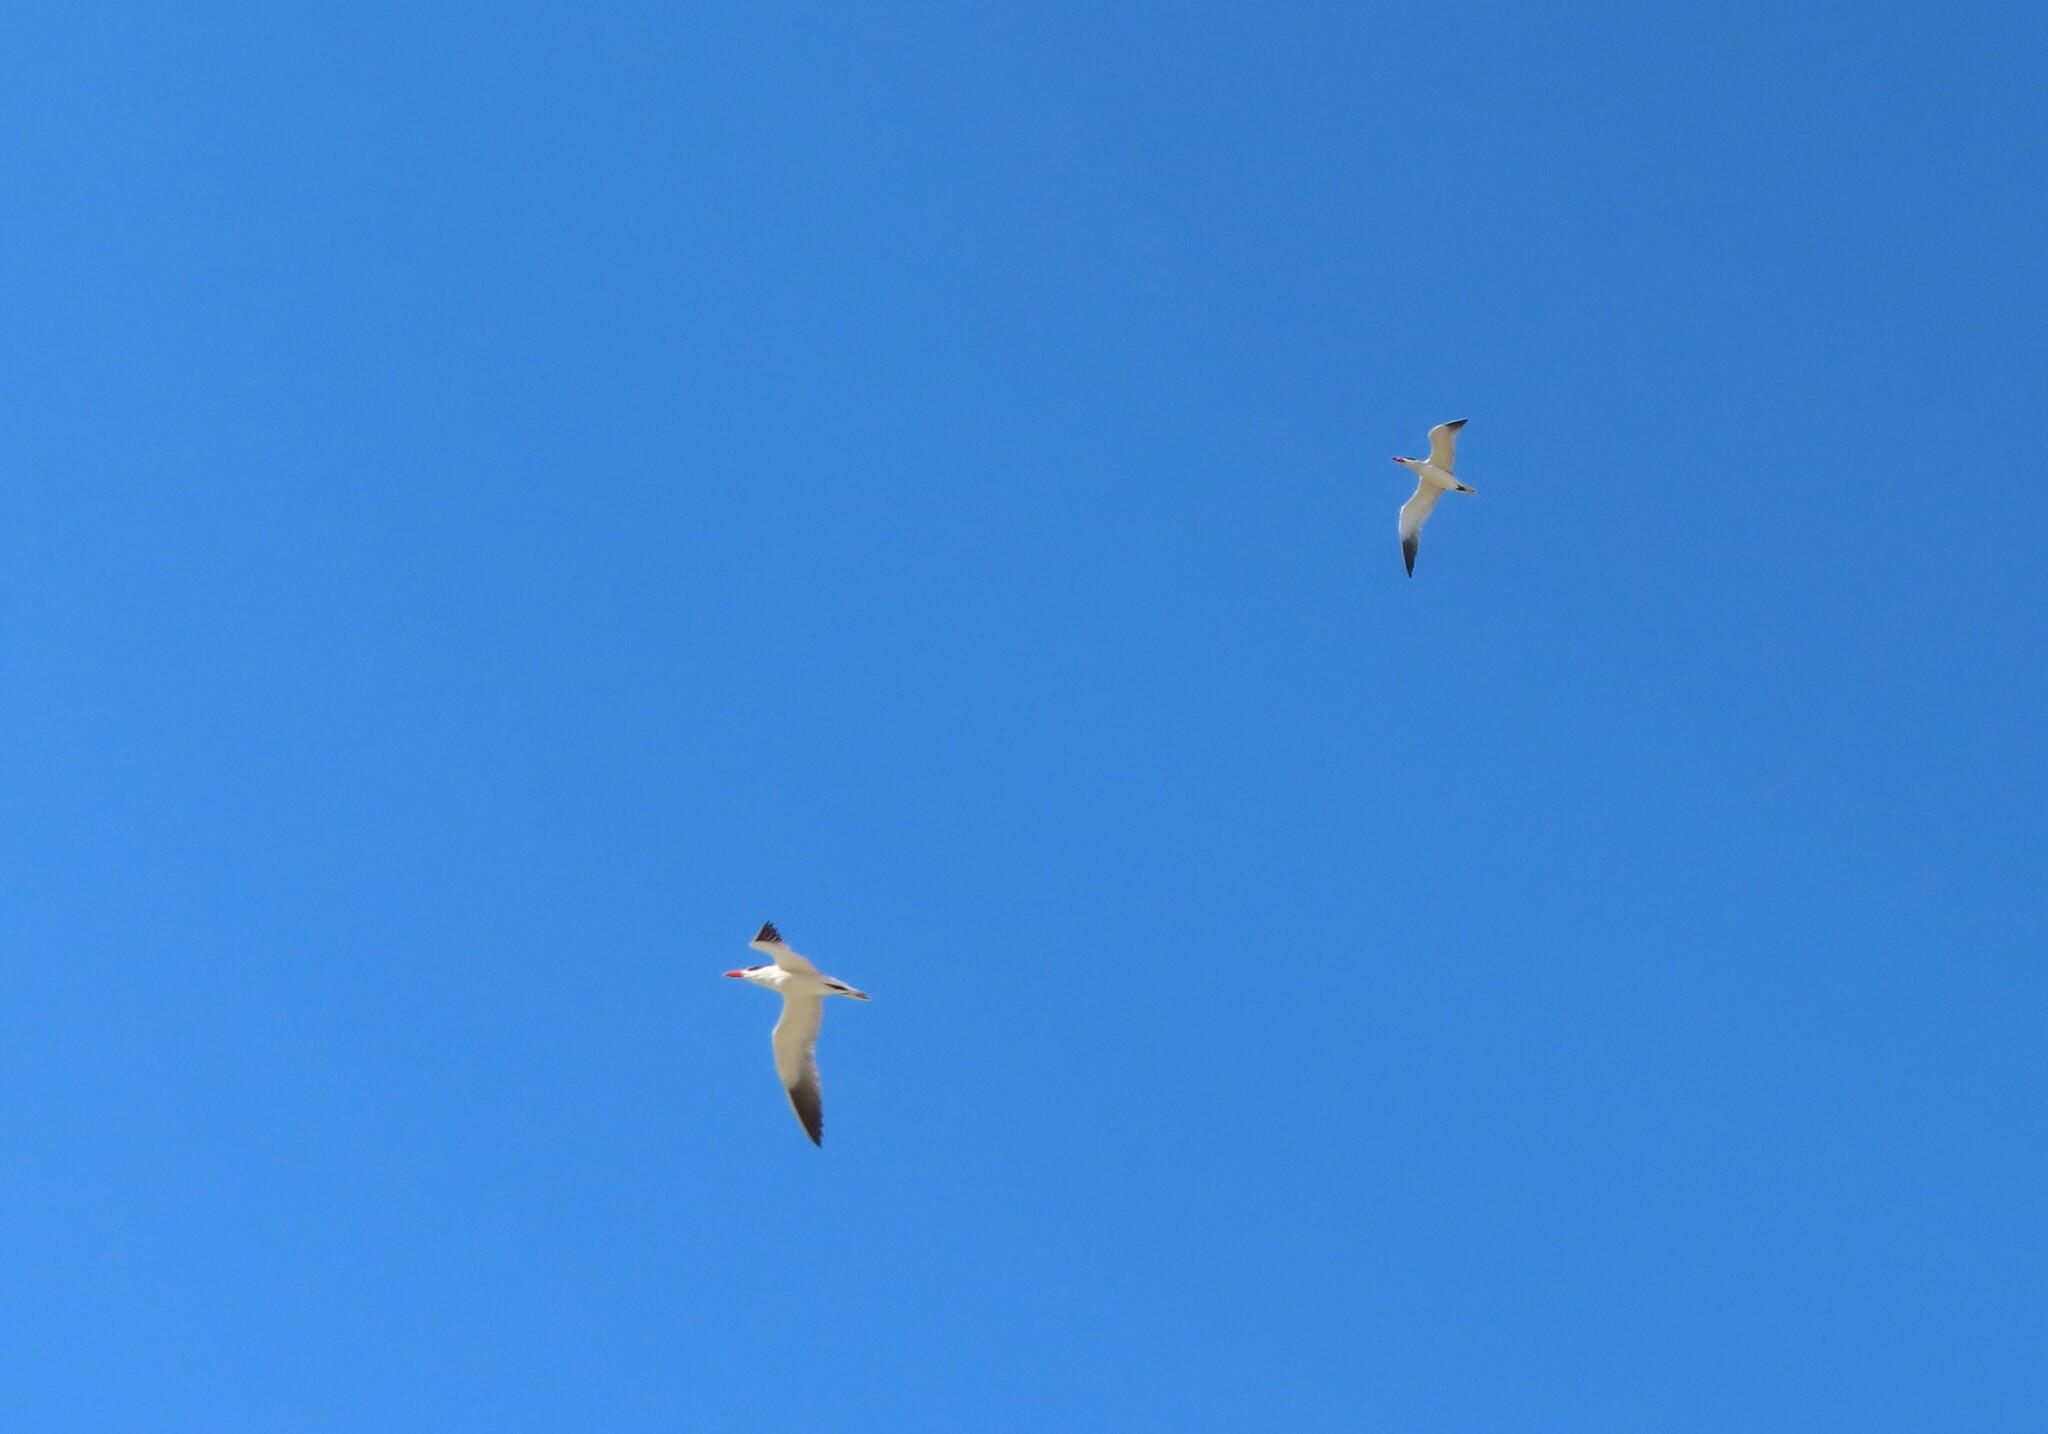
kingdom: Animalia
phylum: Chordata
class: Aves
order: Charadriiformes
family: Laridae
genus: Hydroprogne
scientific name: Hydroprogne caspia
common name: Caspian tern
